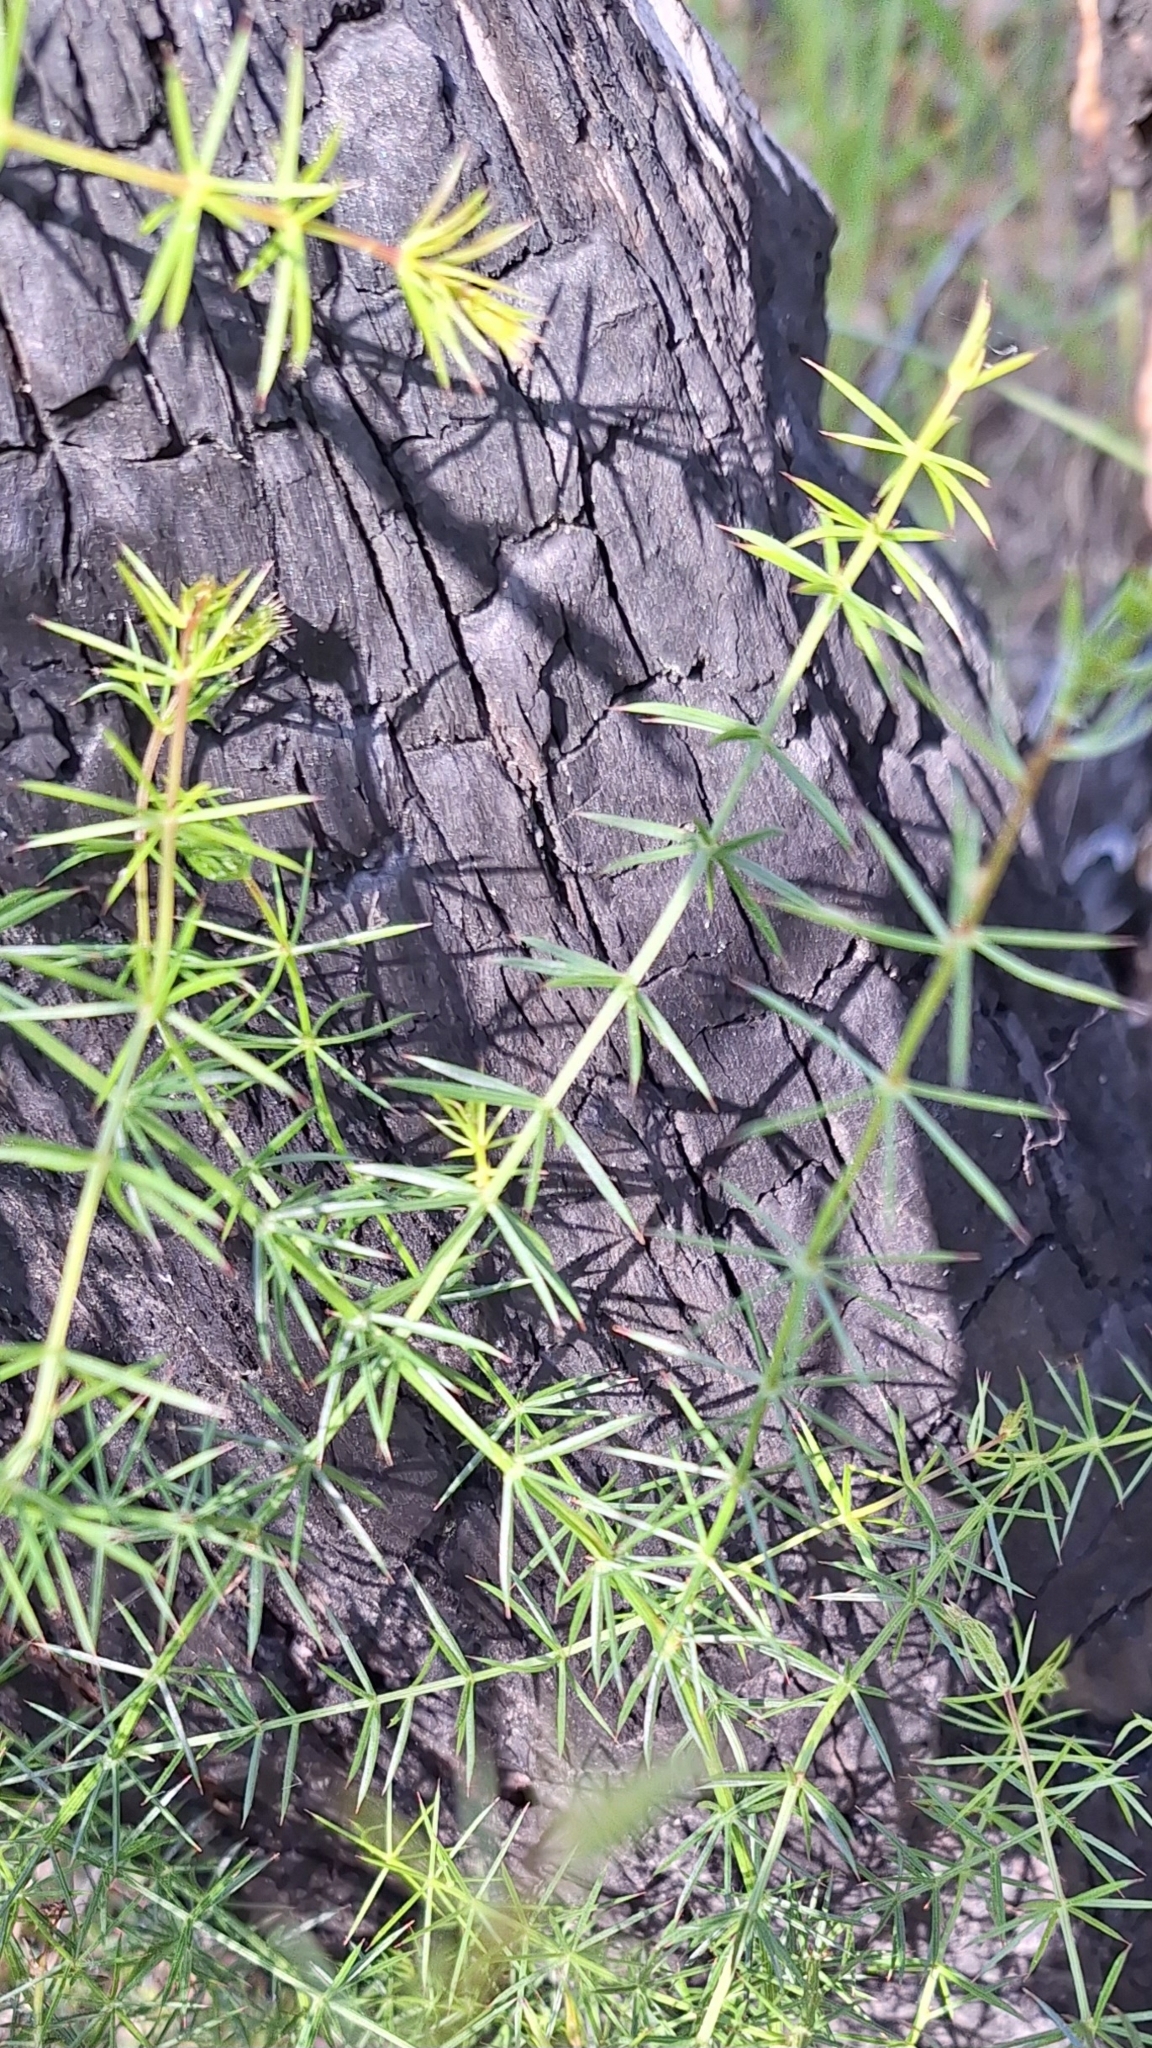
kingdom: Plantae
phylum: Tracheophyta
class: Magnoliopsida
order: Fabales
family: Fabaceae
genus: Acacia
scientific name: Acacia verticillata
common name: Prickly moses
